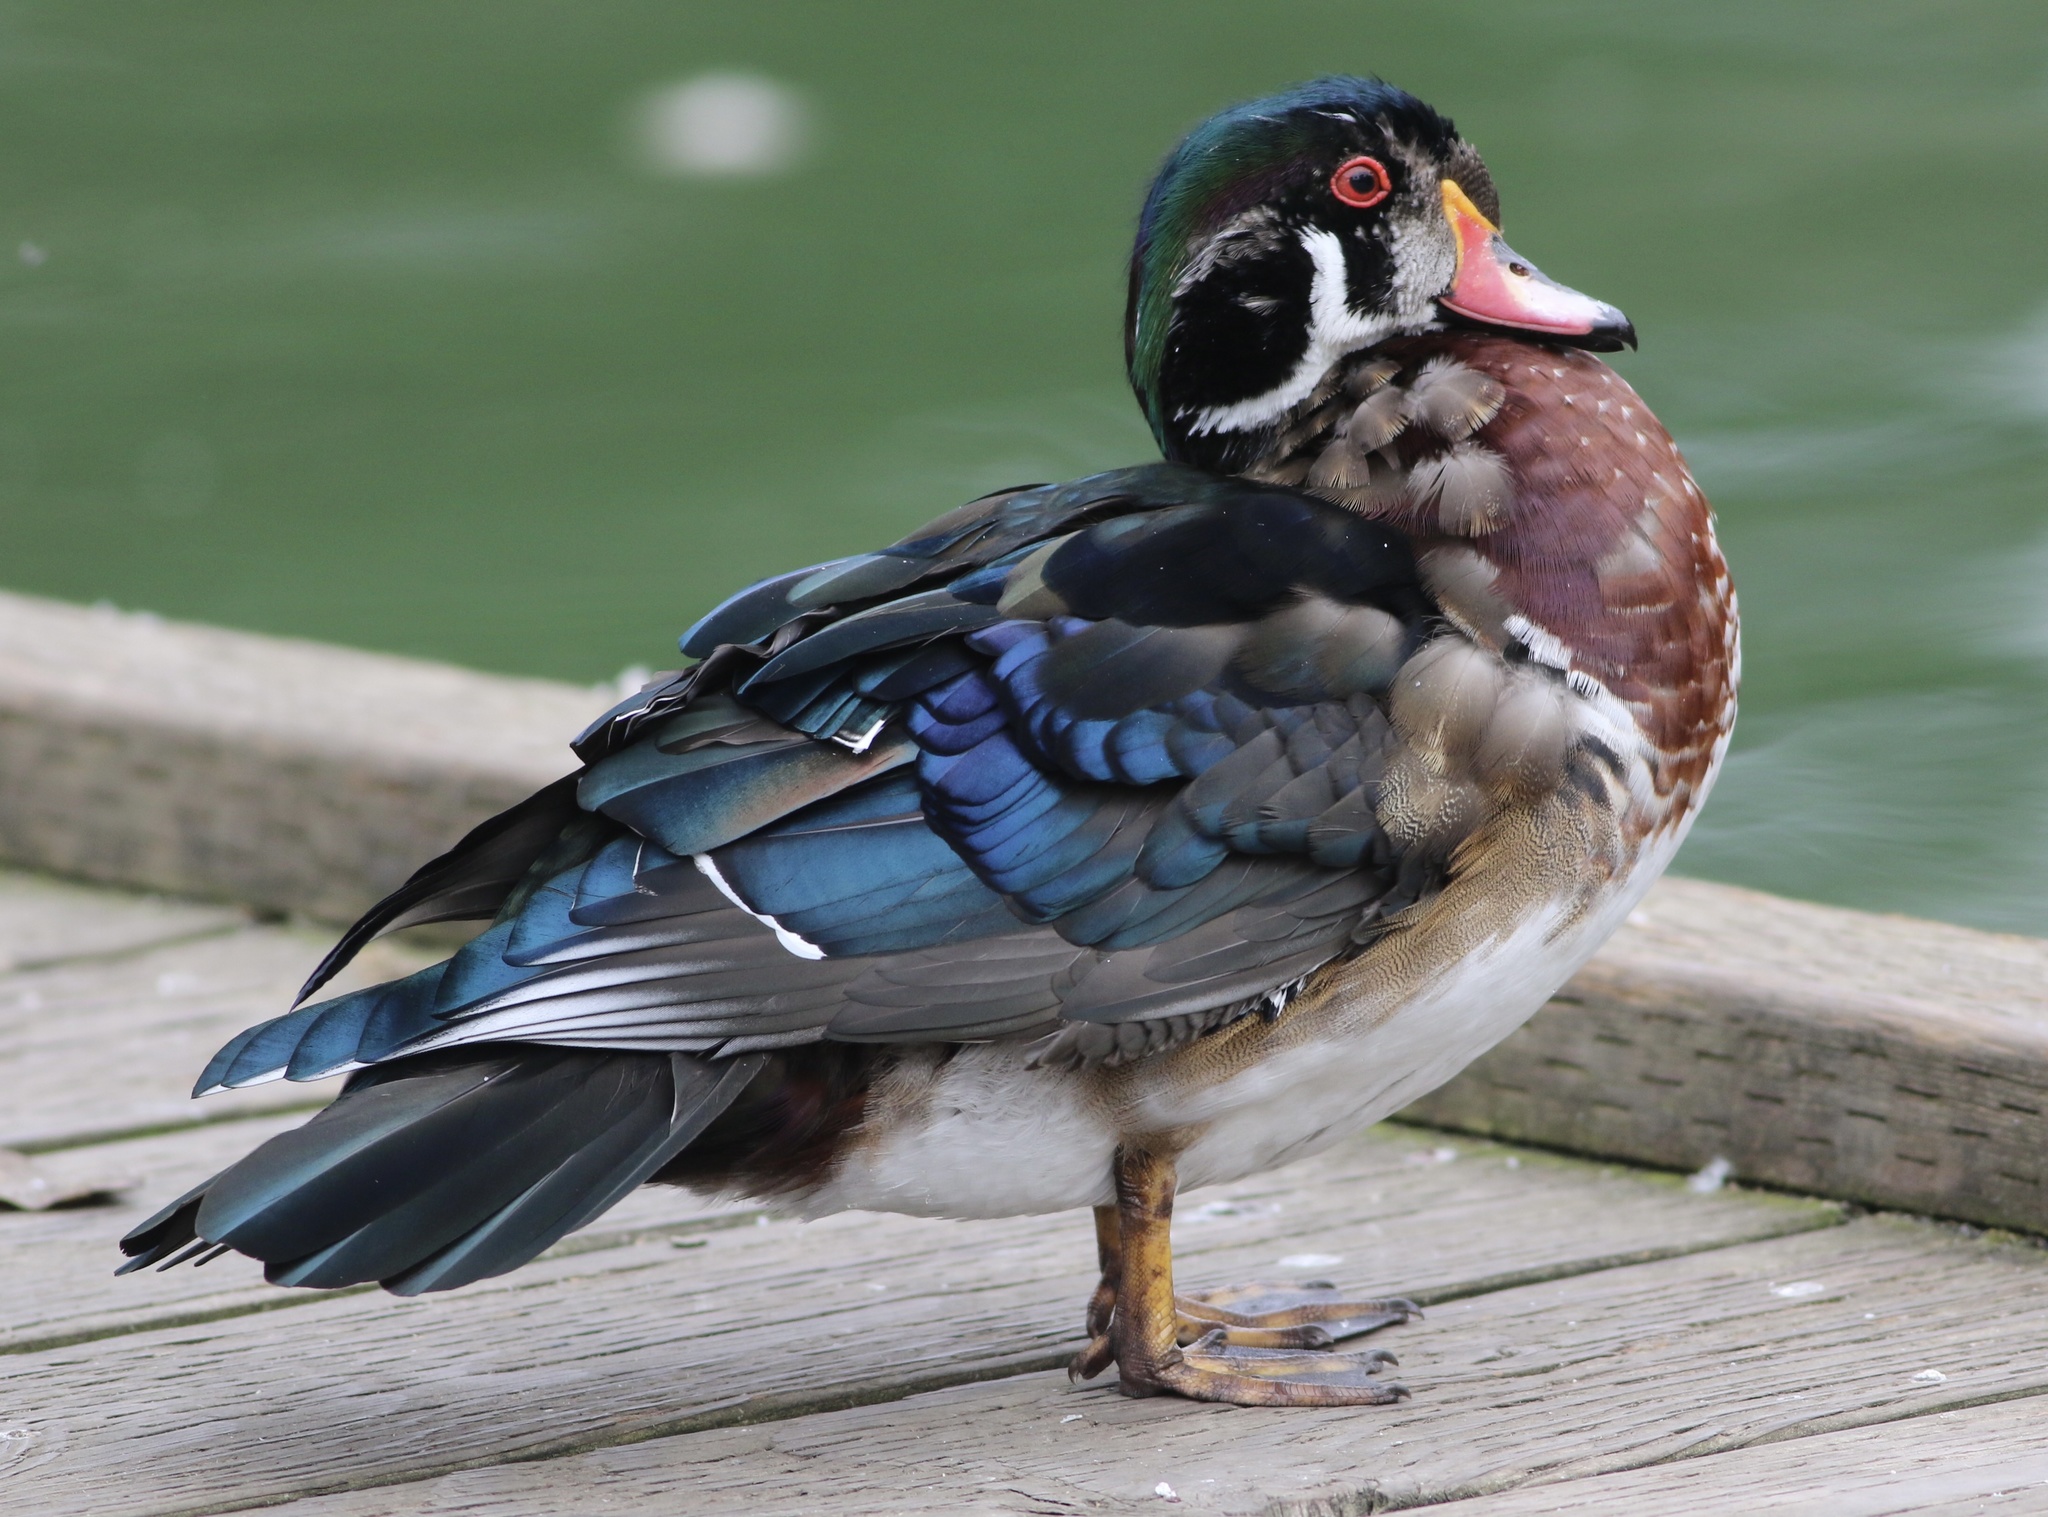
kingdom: Animalia
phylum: Chordata
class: Aves
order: Anseriformes
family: Anatidae
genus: Aix
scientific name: Aix sponsa
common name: Wood duck
